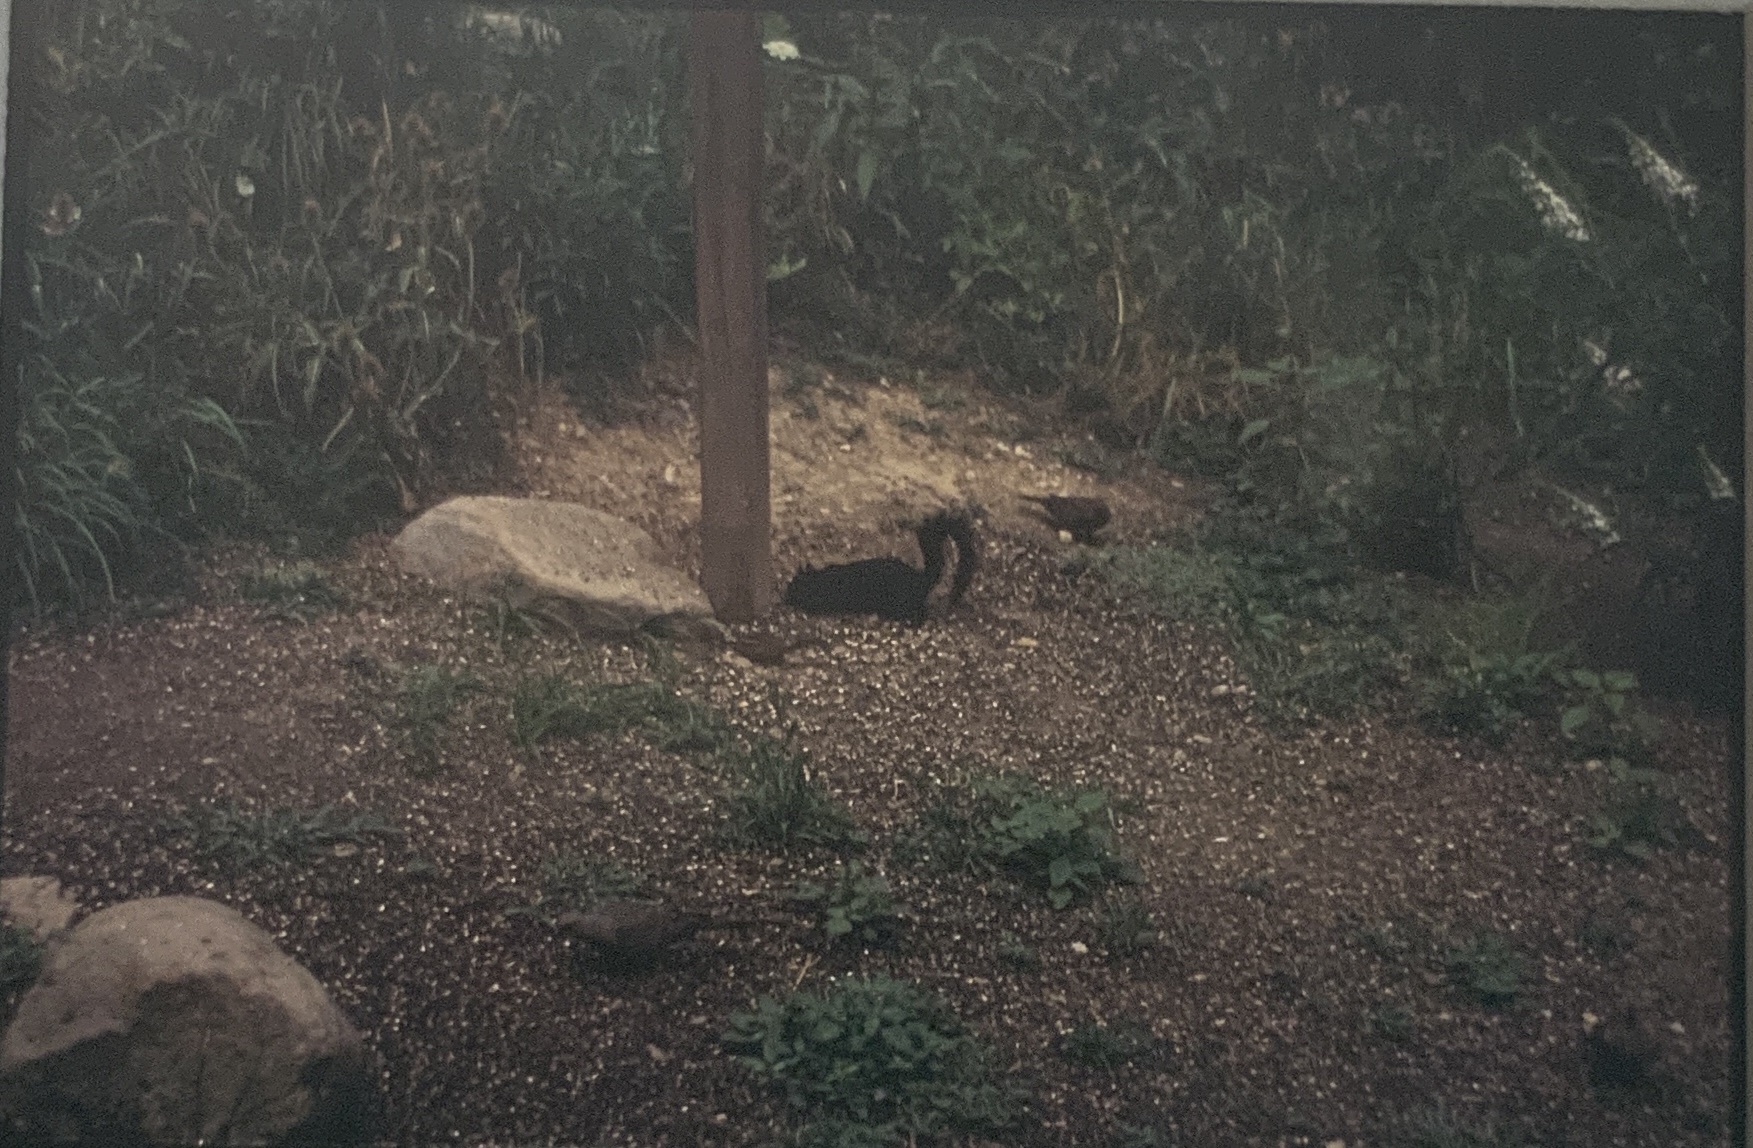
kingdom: Animalia
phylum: Chordata
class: Mammalia
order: Rodentia
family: Sciuridae
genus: Sciurus
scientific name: Sciurus carolinensis
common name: Eastern gray squirrel
